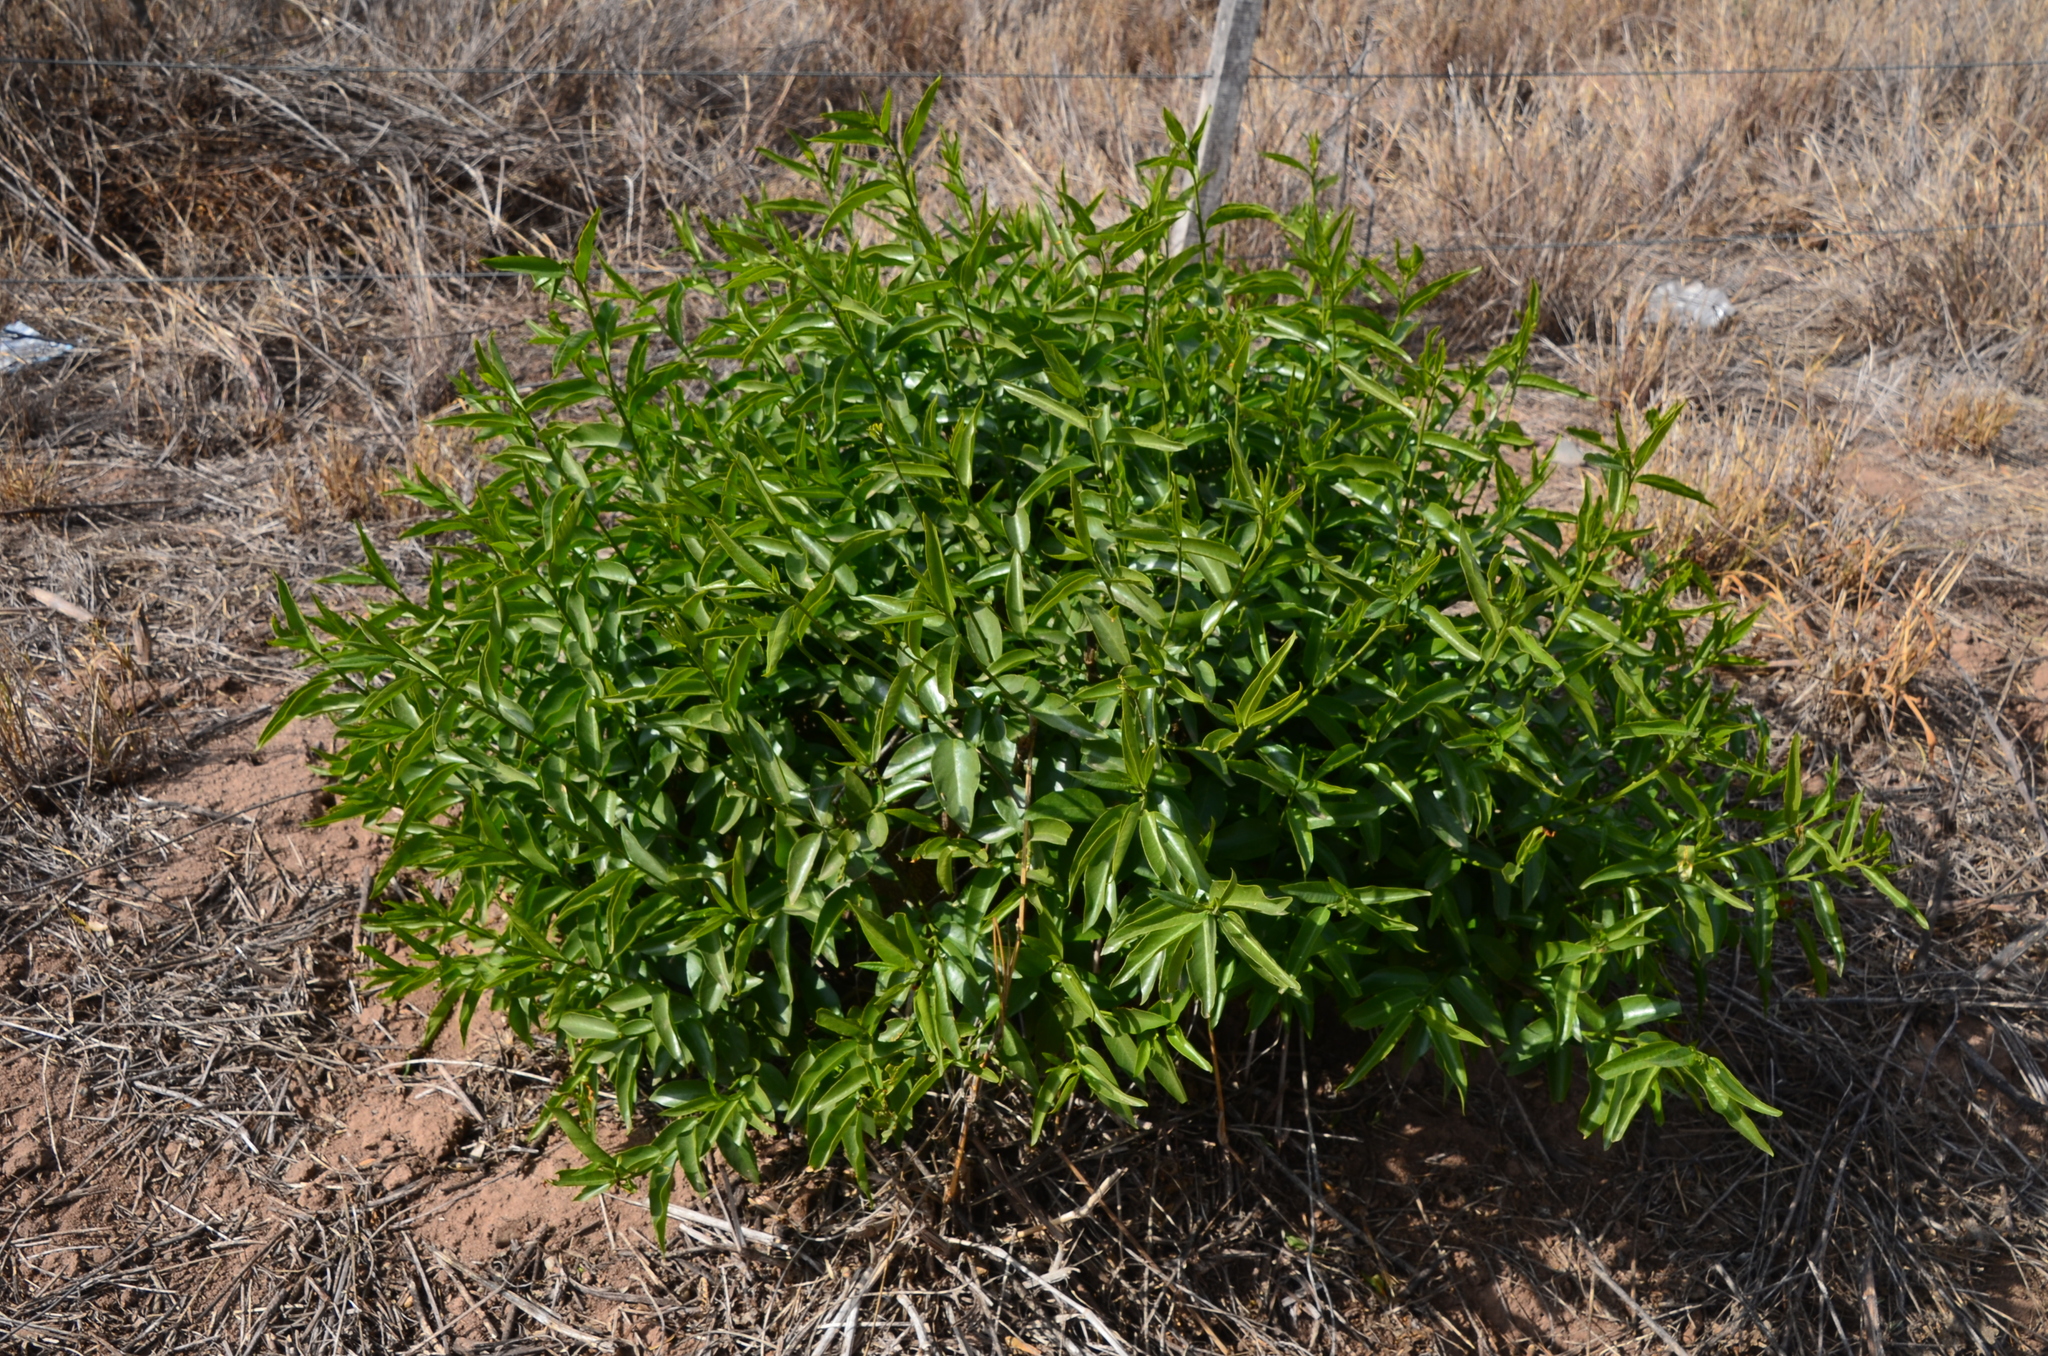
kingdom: Plantae
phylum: Tracheophyta
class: Magnoliopsida
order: Gentianales
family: Apocynaceae
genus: Vallesia
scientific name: Vallesia glabra
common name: Pearlberry
